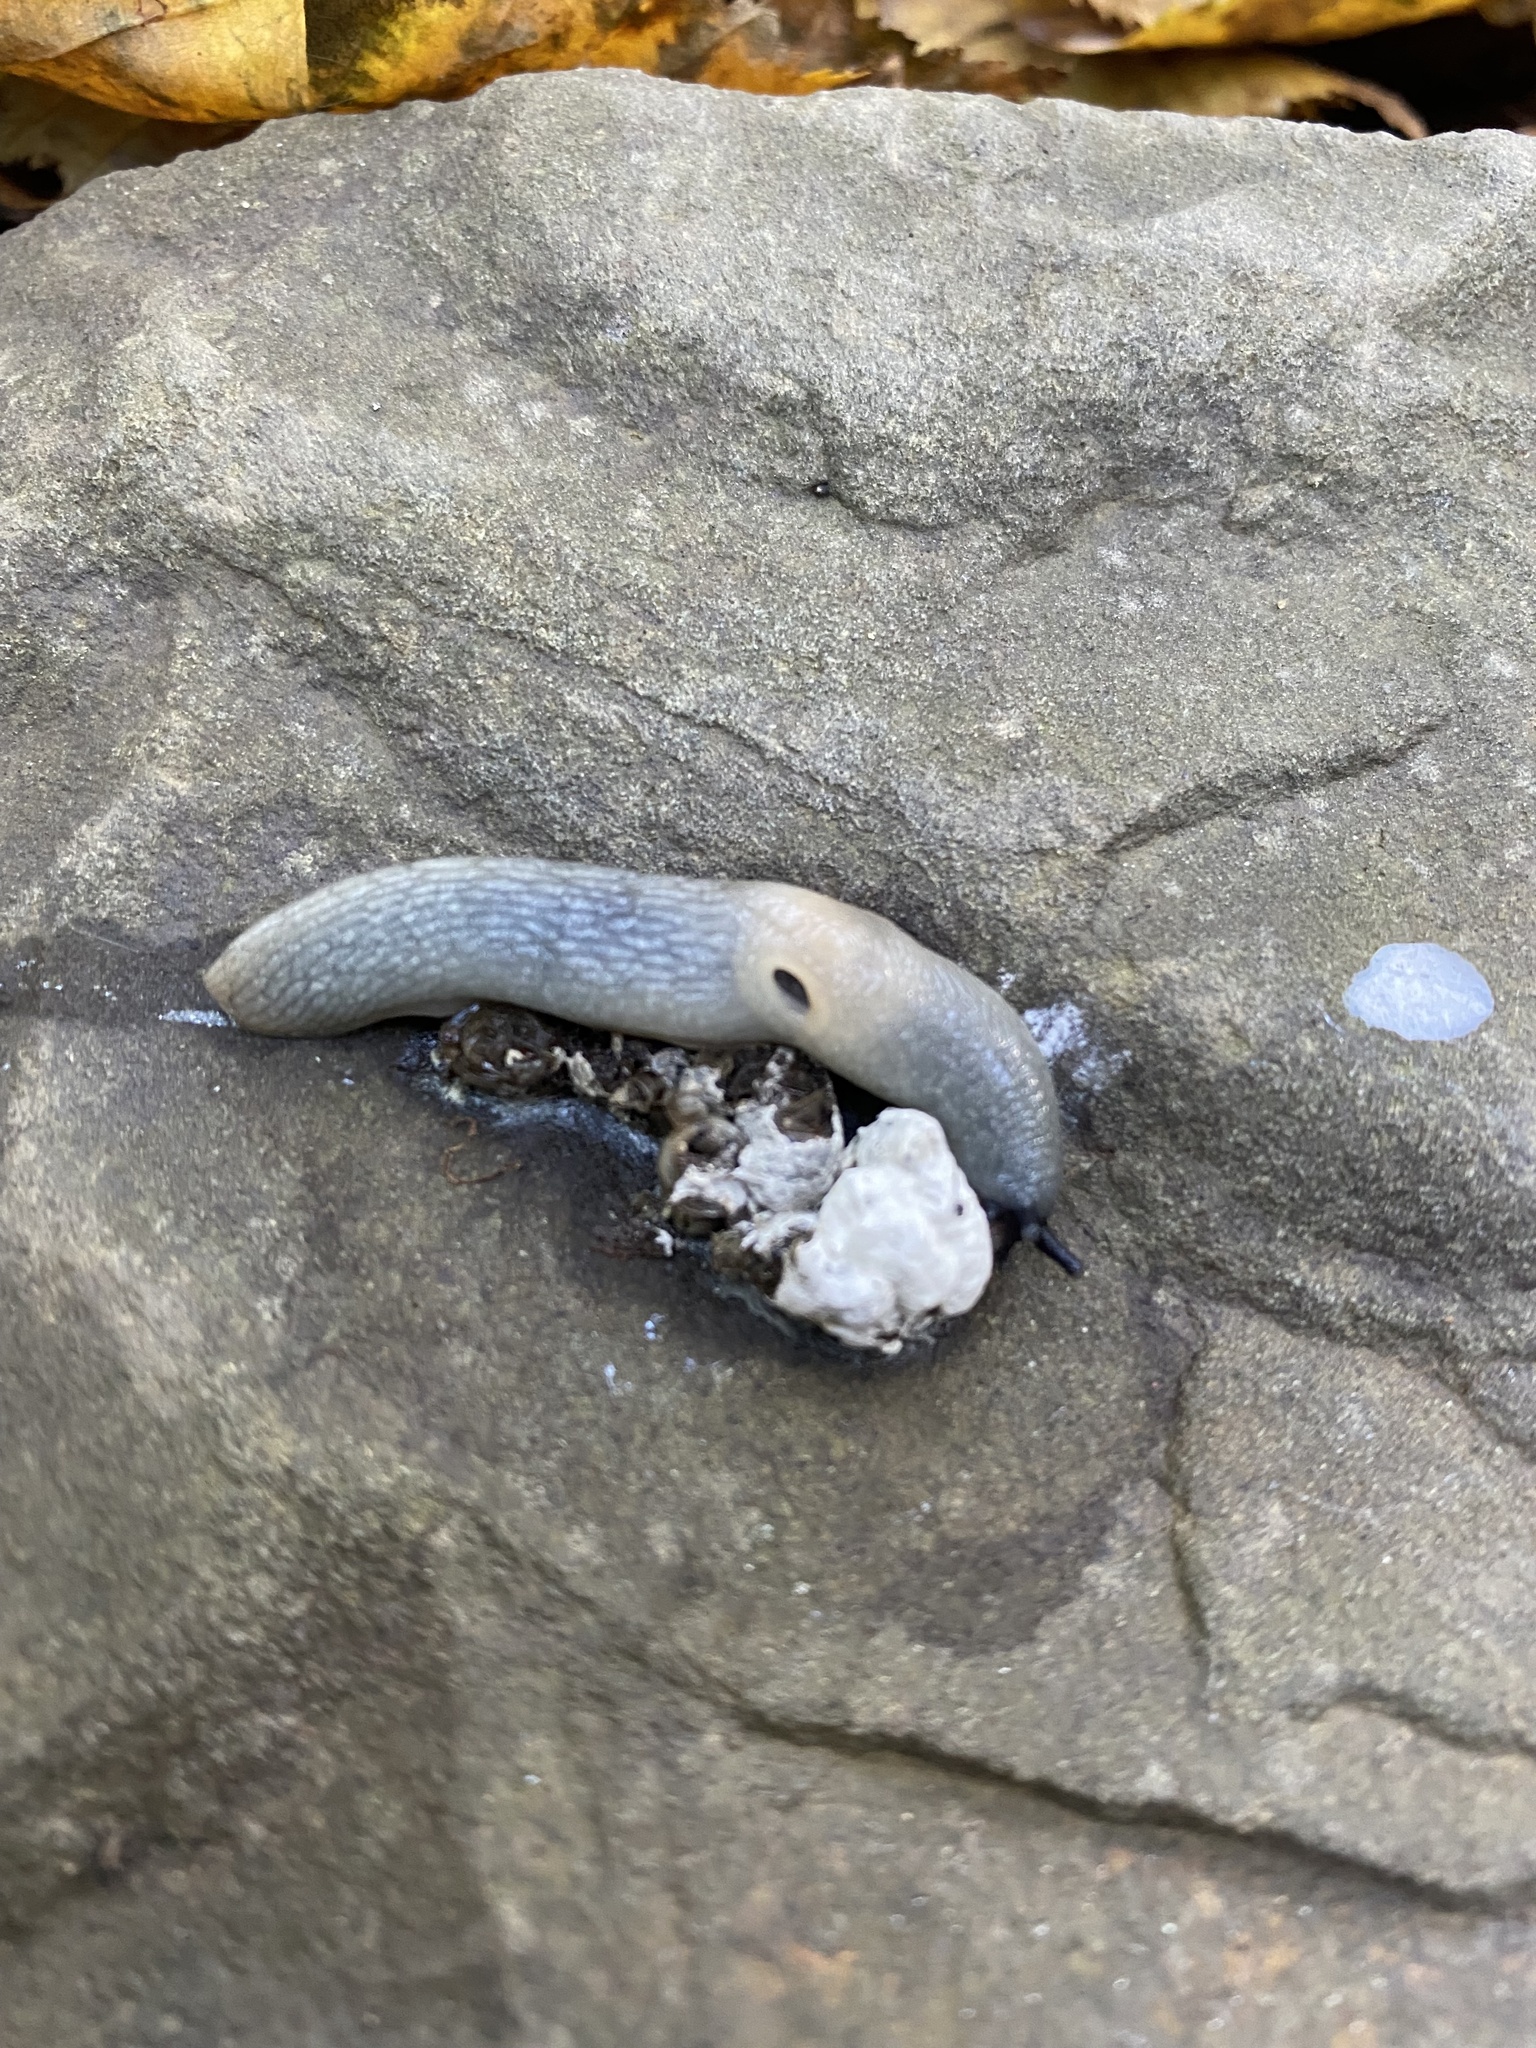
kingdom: Animalia
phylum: Mollusca
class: Gastropoda
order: Stylommatophora
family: Agriolimacidae
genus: Krynickillus
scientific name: Krynickillus melanocephalus
